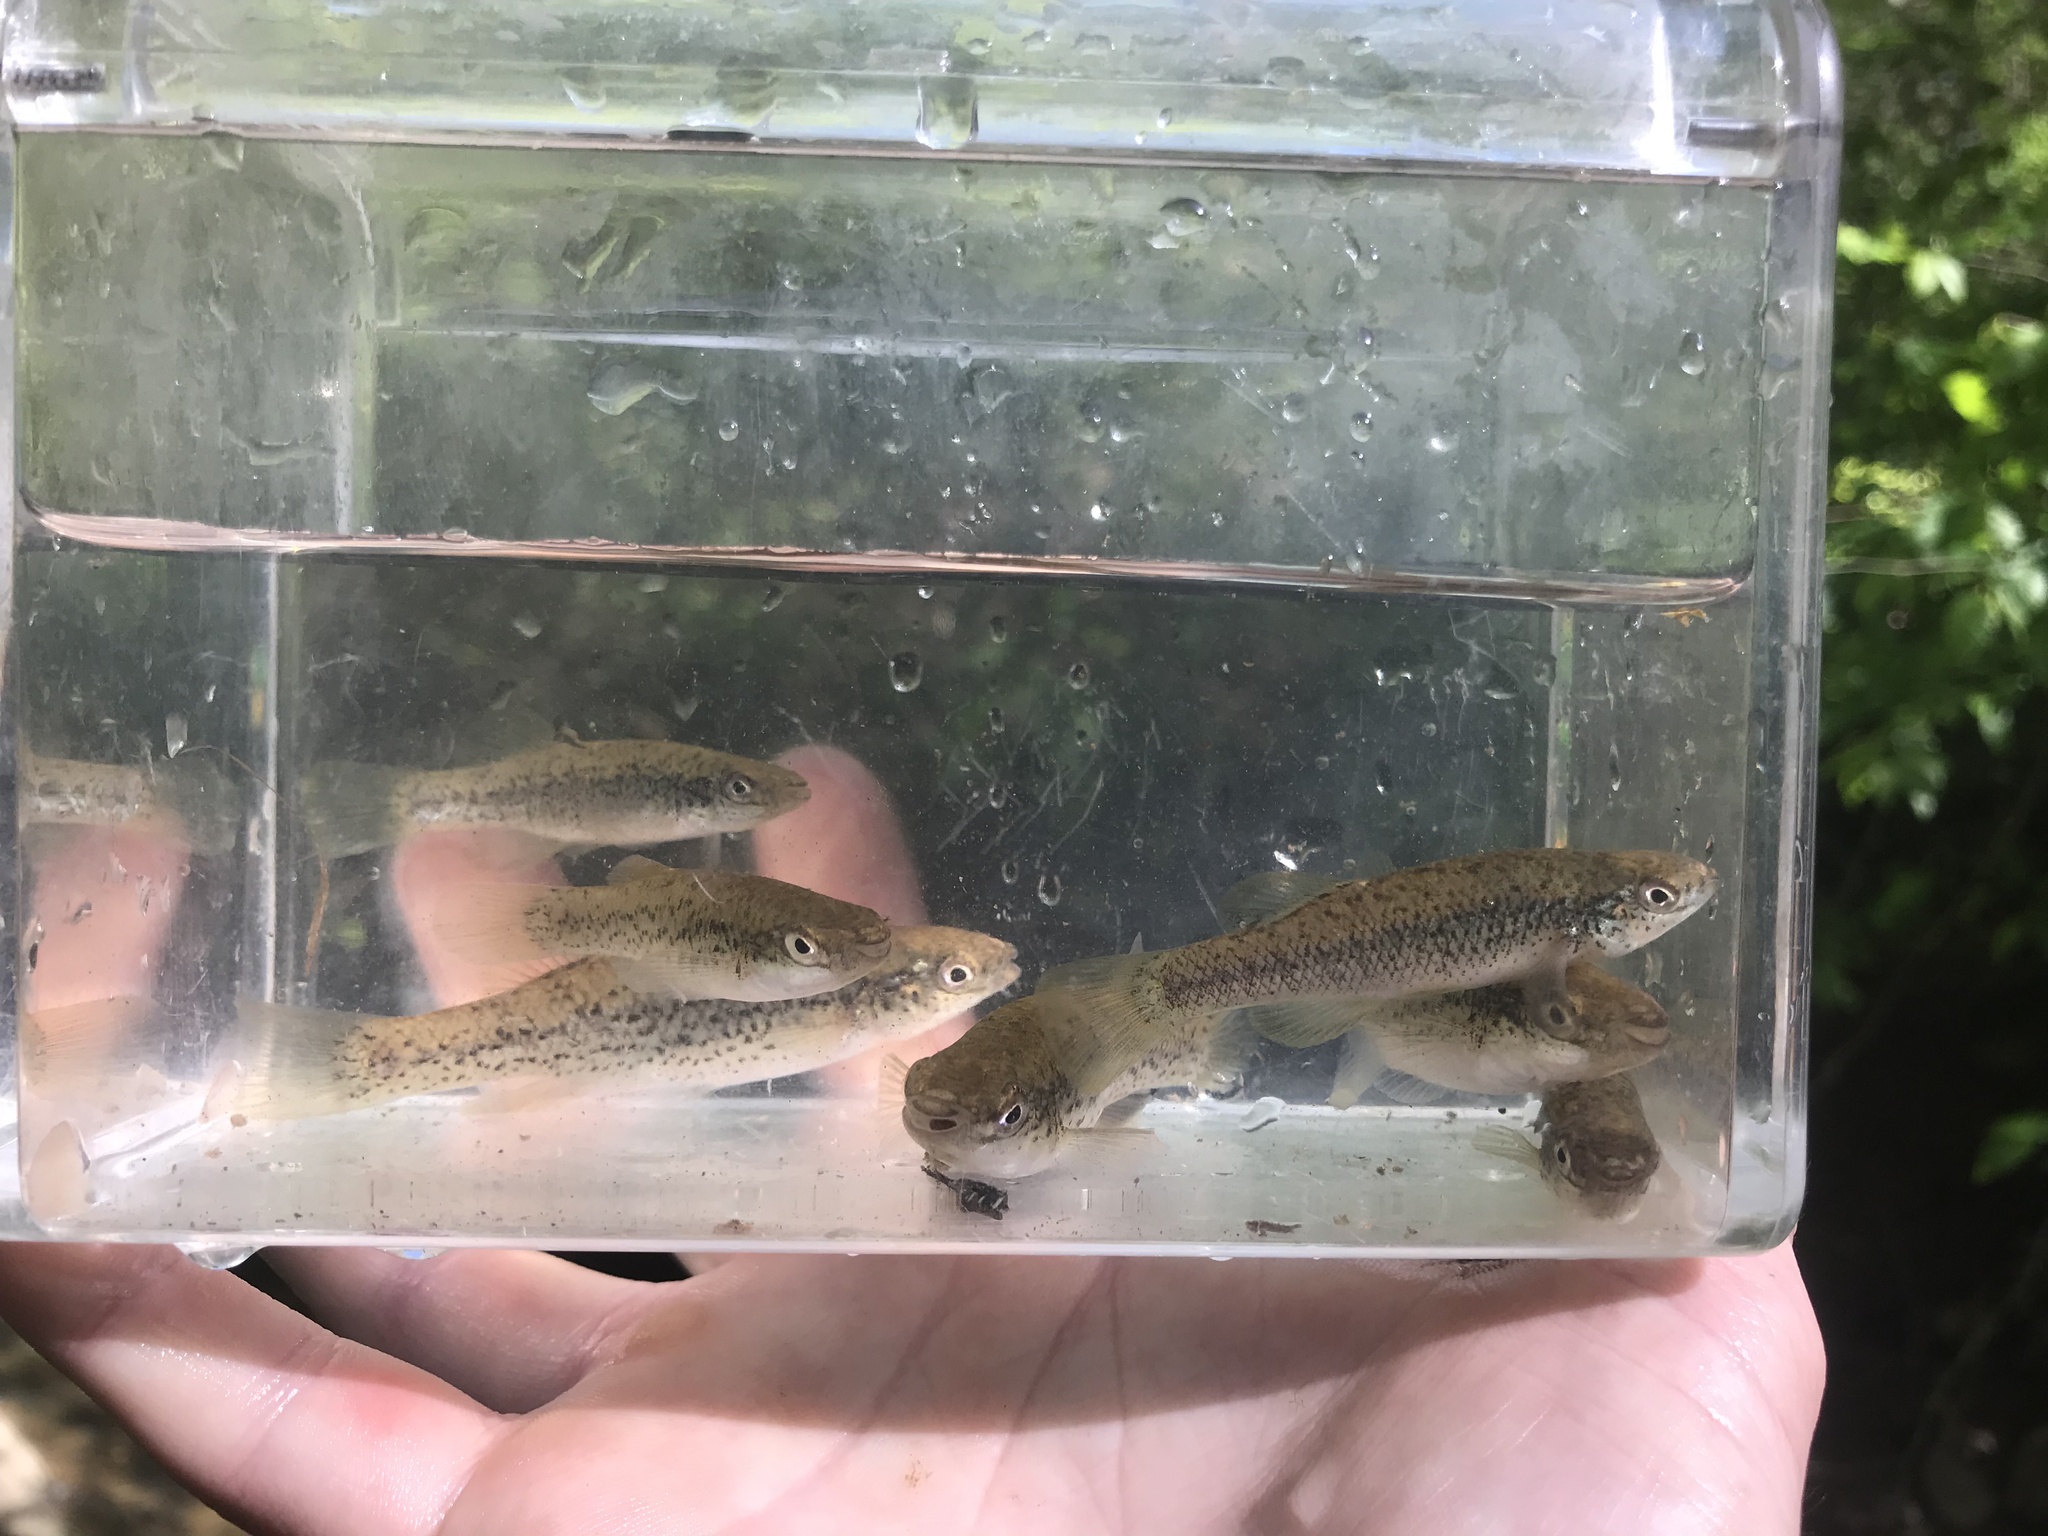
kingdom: Animalia
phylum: Chordata
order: Cyprinodontiformes
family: Fundulidae
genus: Fundulus
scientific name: Fundulus rathbuni
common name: Speckled killifish
